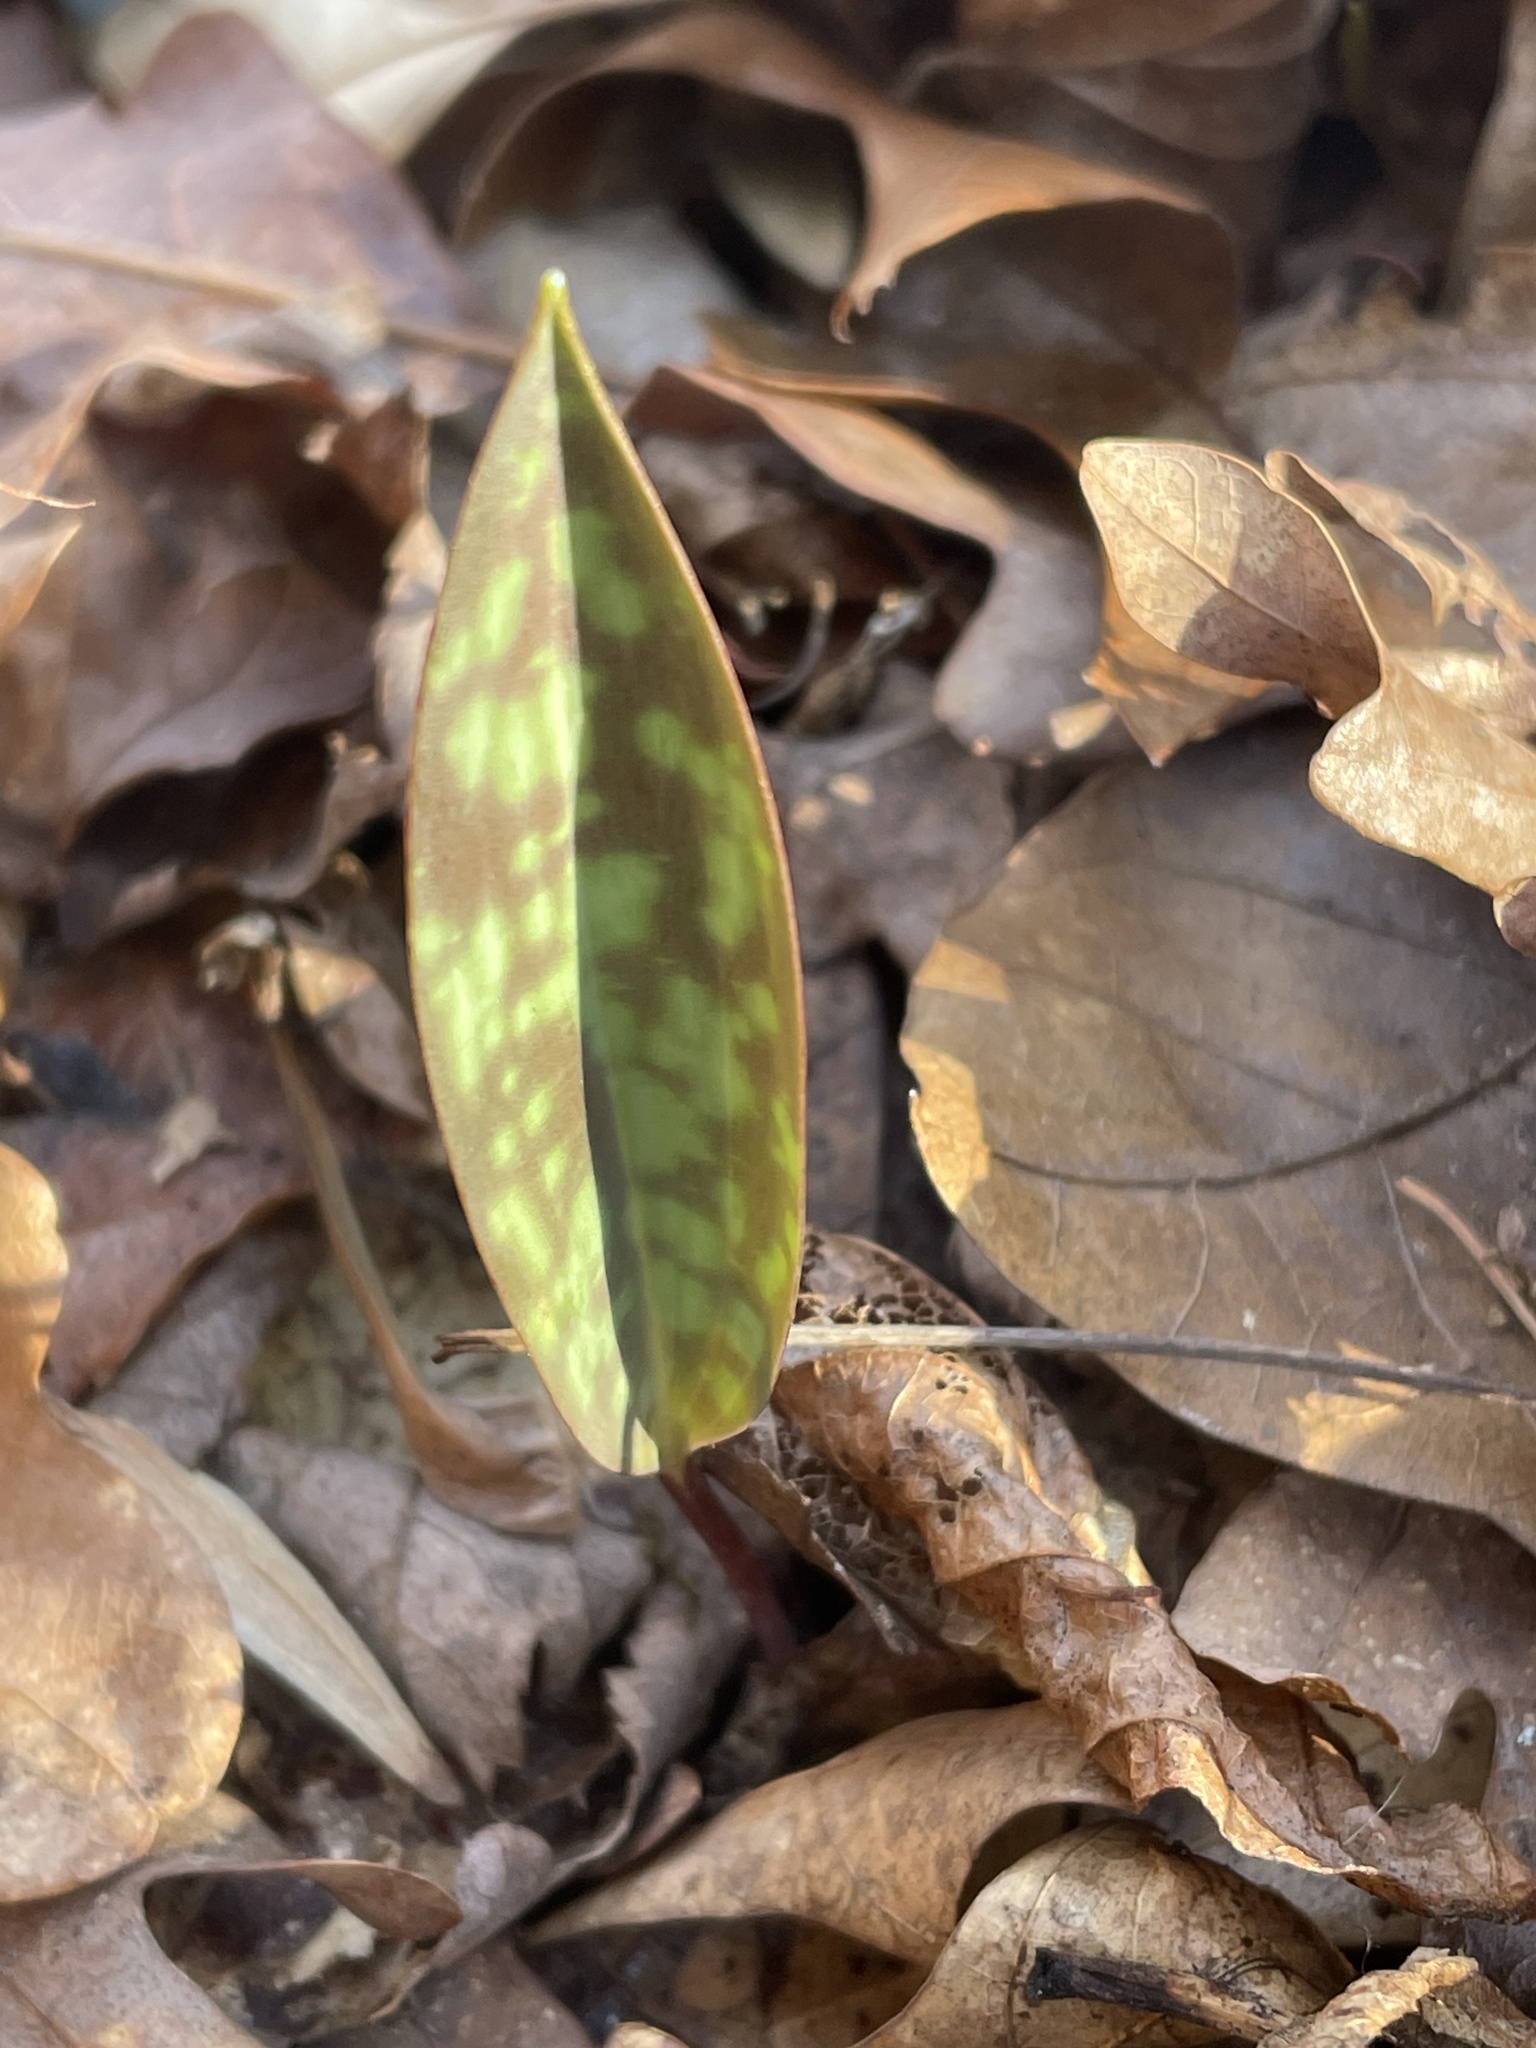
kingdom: Plantae
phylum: Tracheophyta
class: Liliopsida
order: Liliales
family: Liliaceae
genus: Erythronium
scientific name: Erythronium americanum
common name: Yellow adder's-tongue
